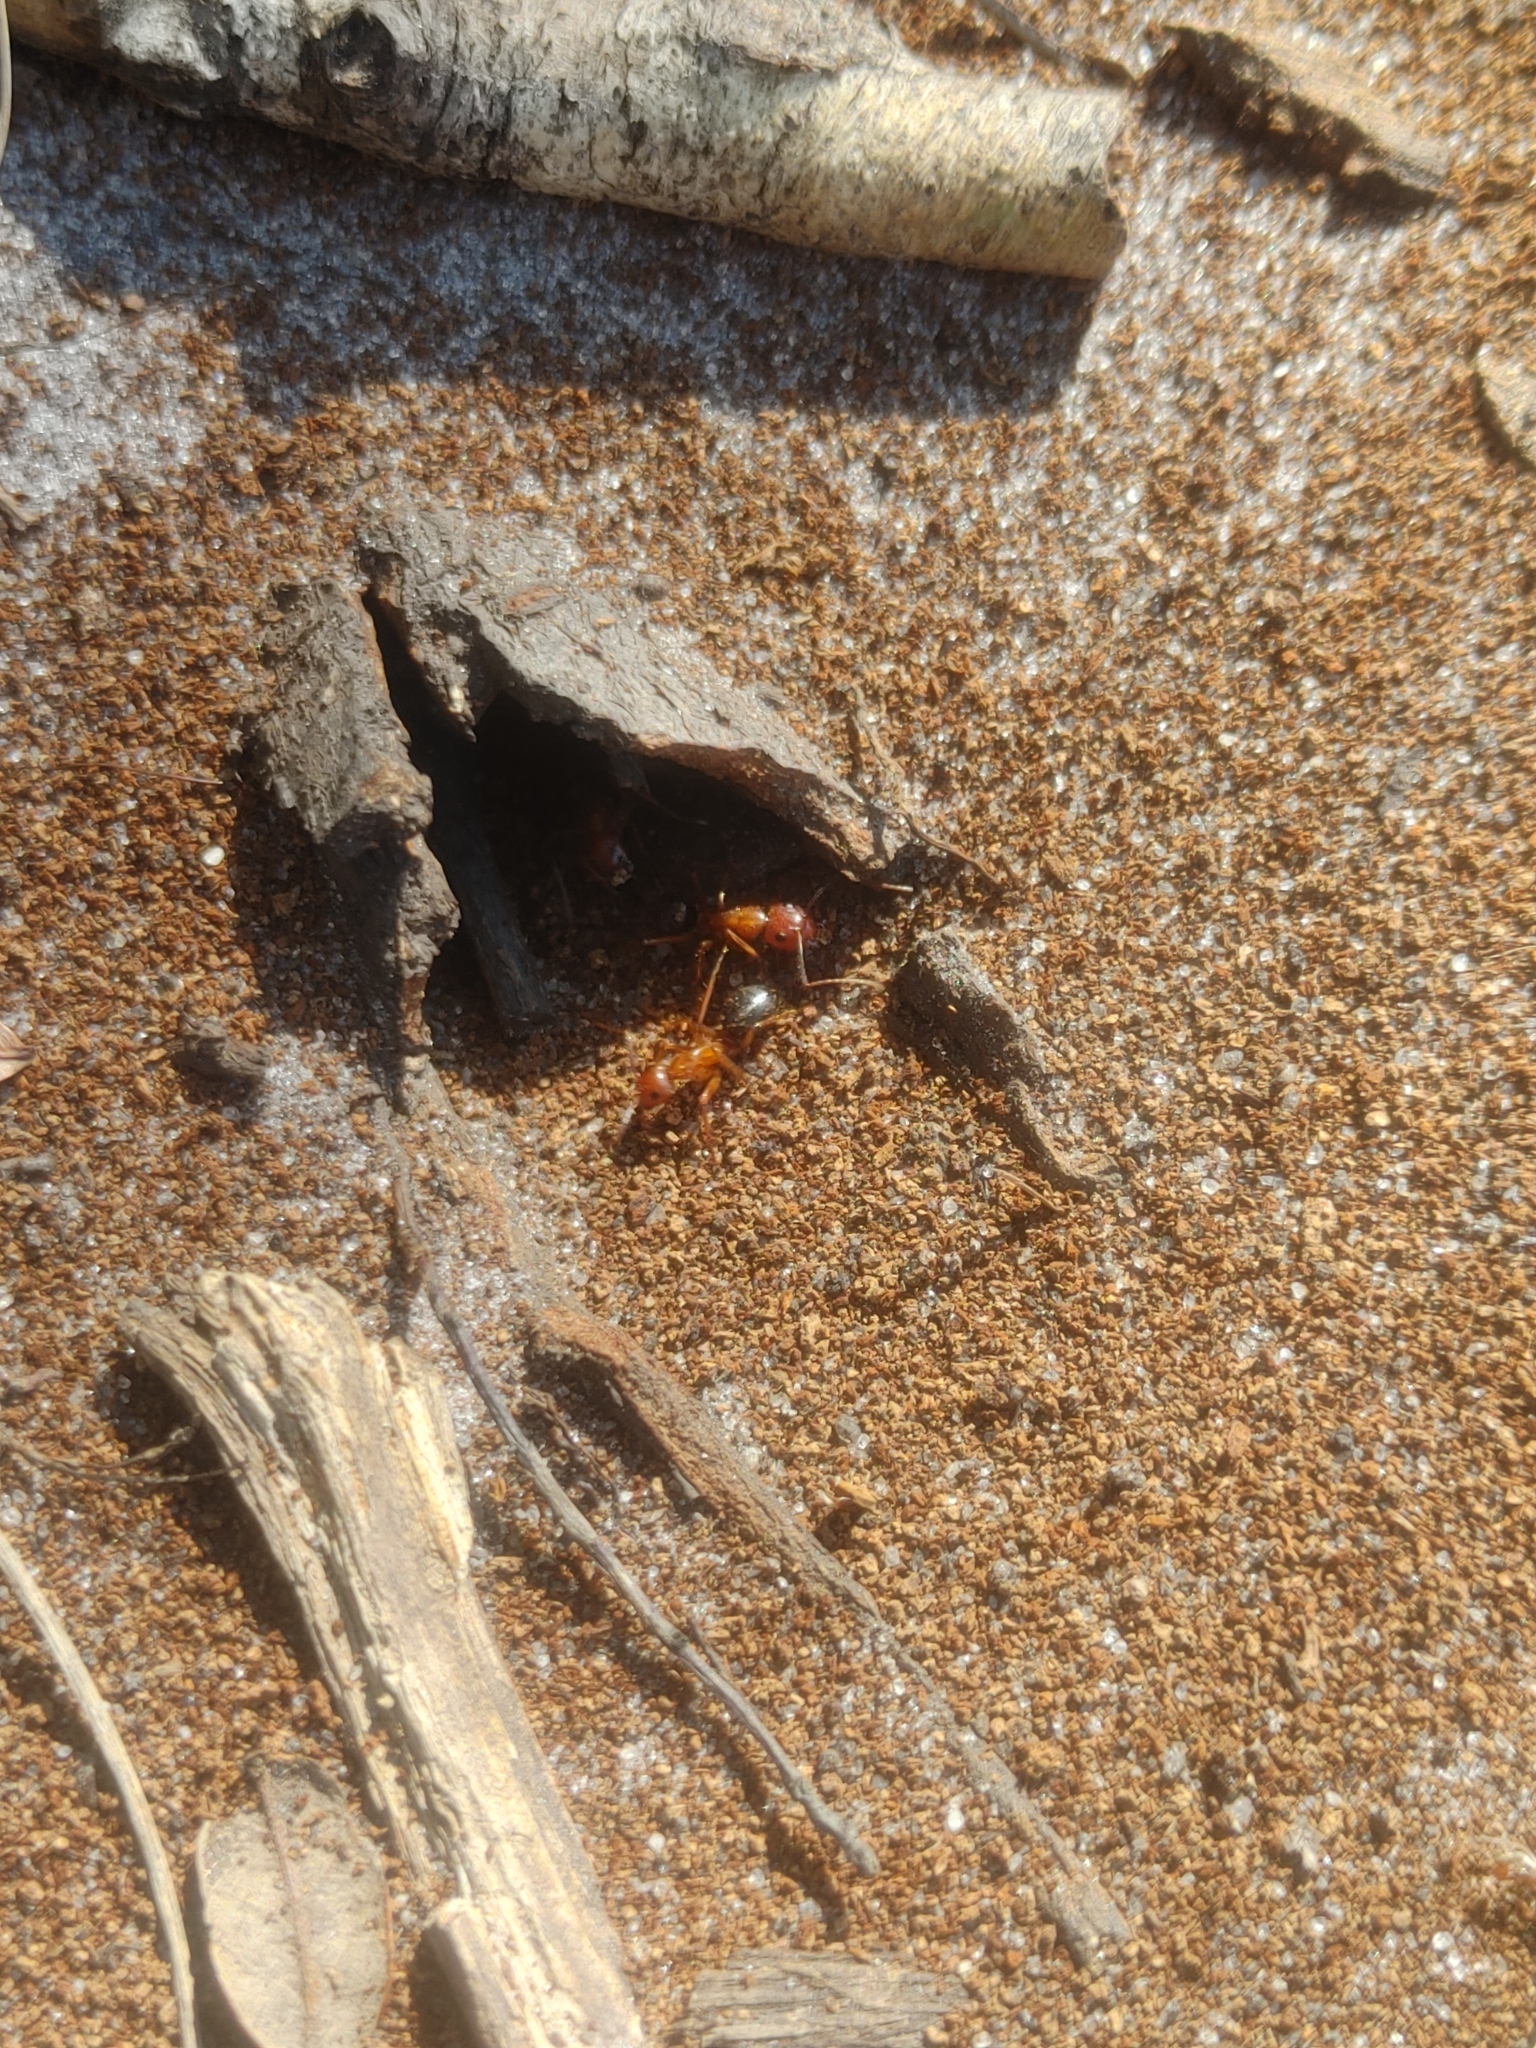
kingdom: Animalia
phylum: Arthropoda
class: Insecta
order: Hymenoptera
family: Formicidae
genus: Camponotus
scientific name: Camponotus floridanus
